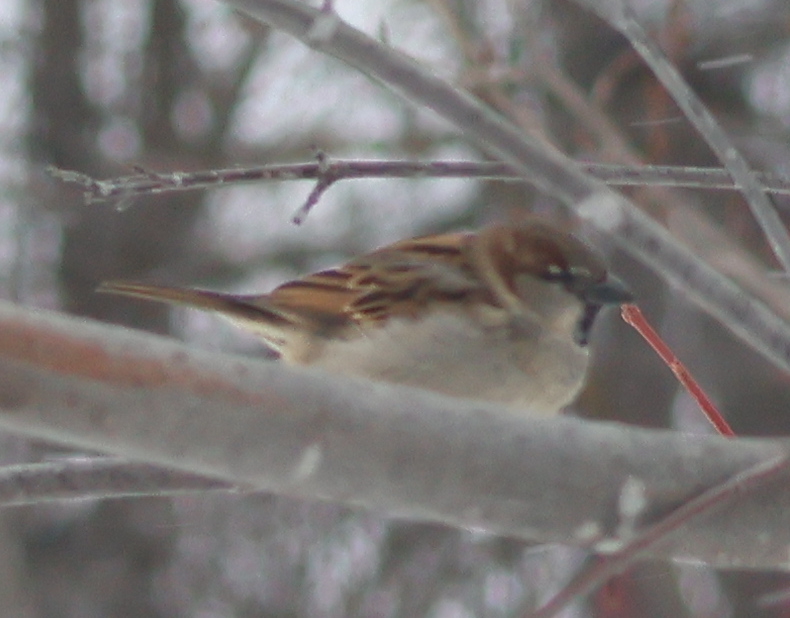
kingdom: Animalia
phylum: Chordata
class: Aves
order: Passeriformes
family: Passeridae
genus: Passer
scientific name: Passer domesticus
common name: House sparrow
